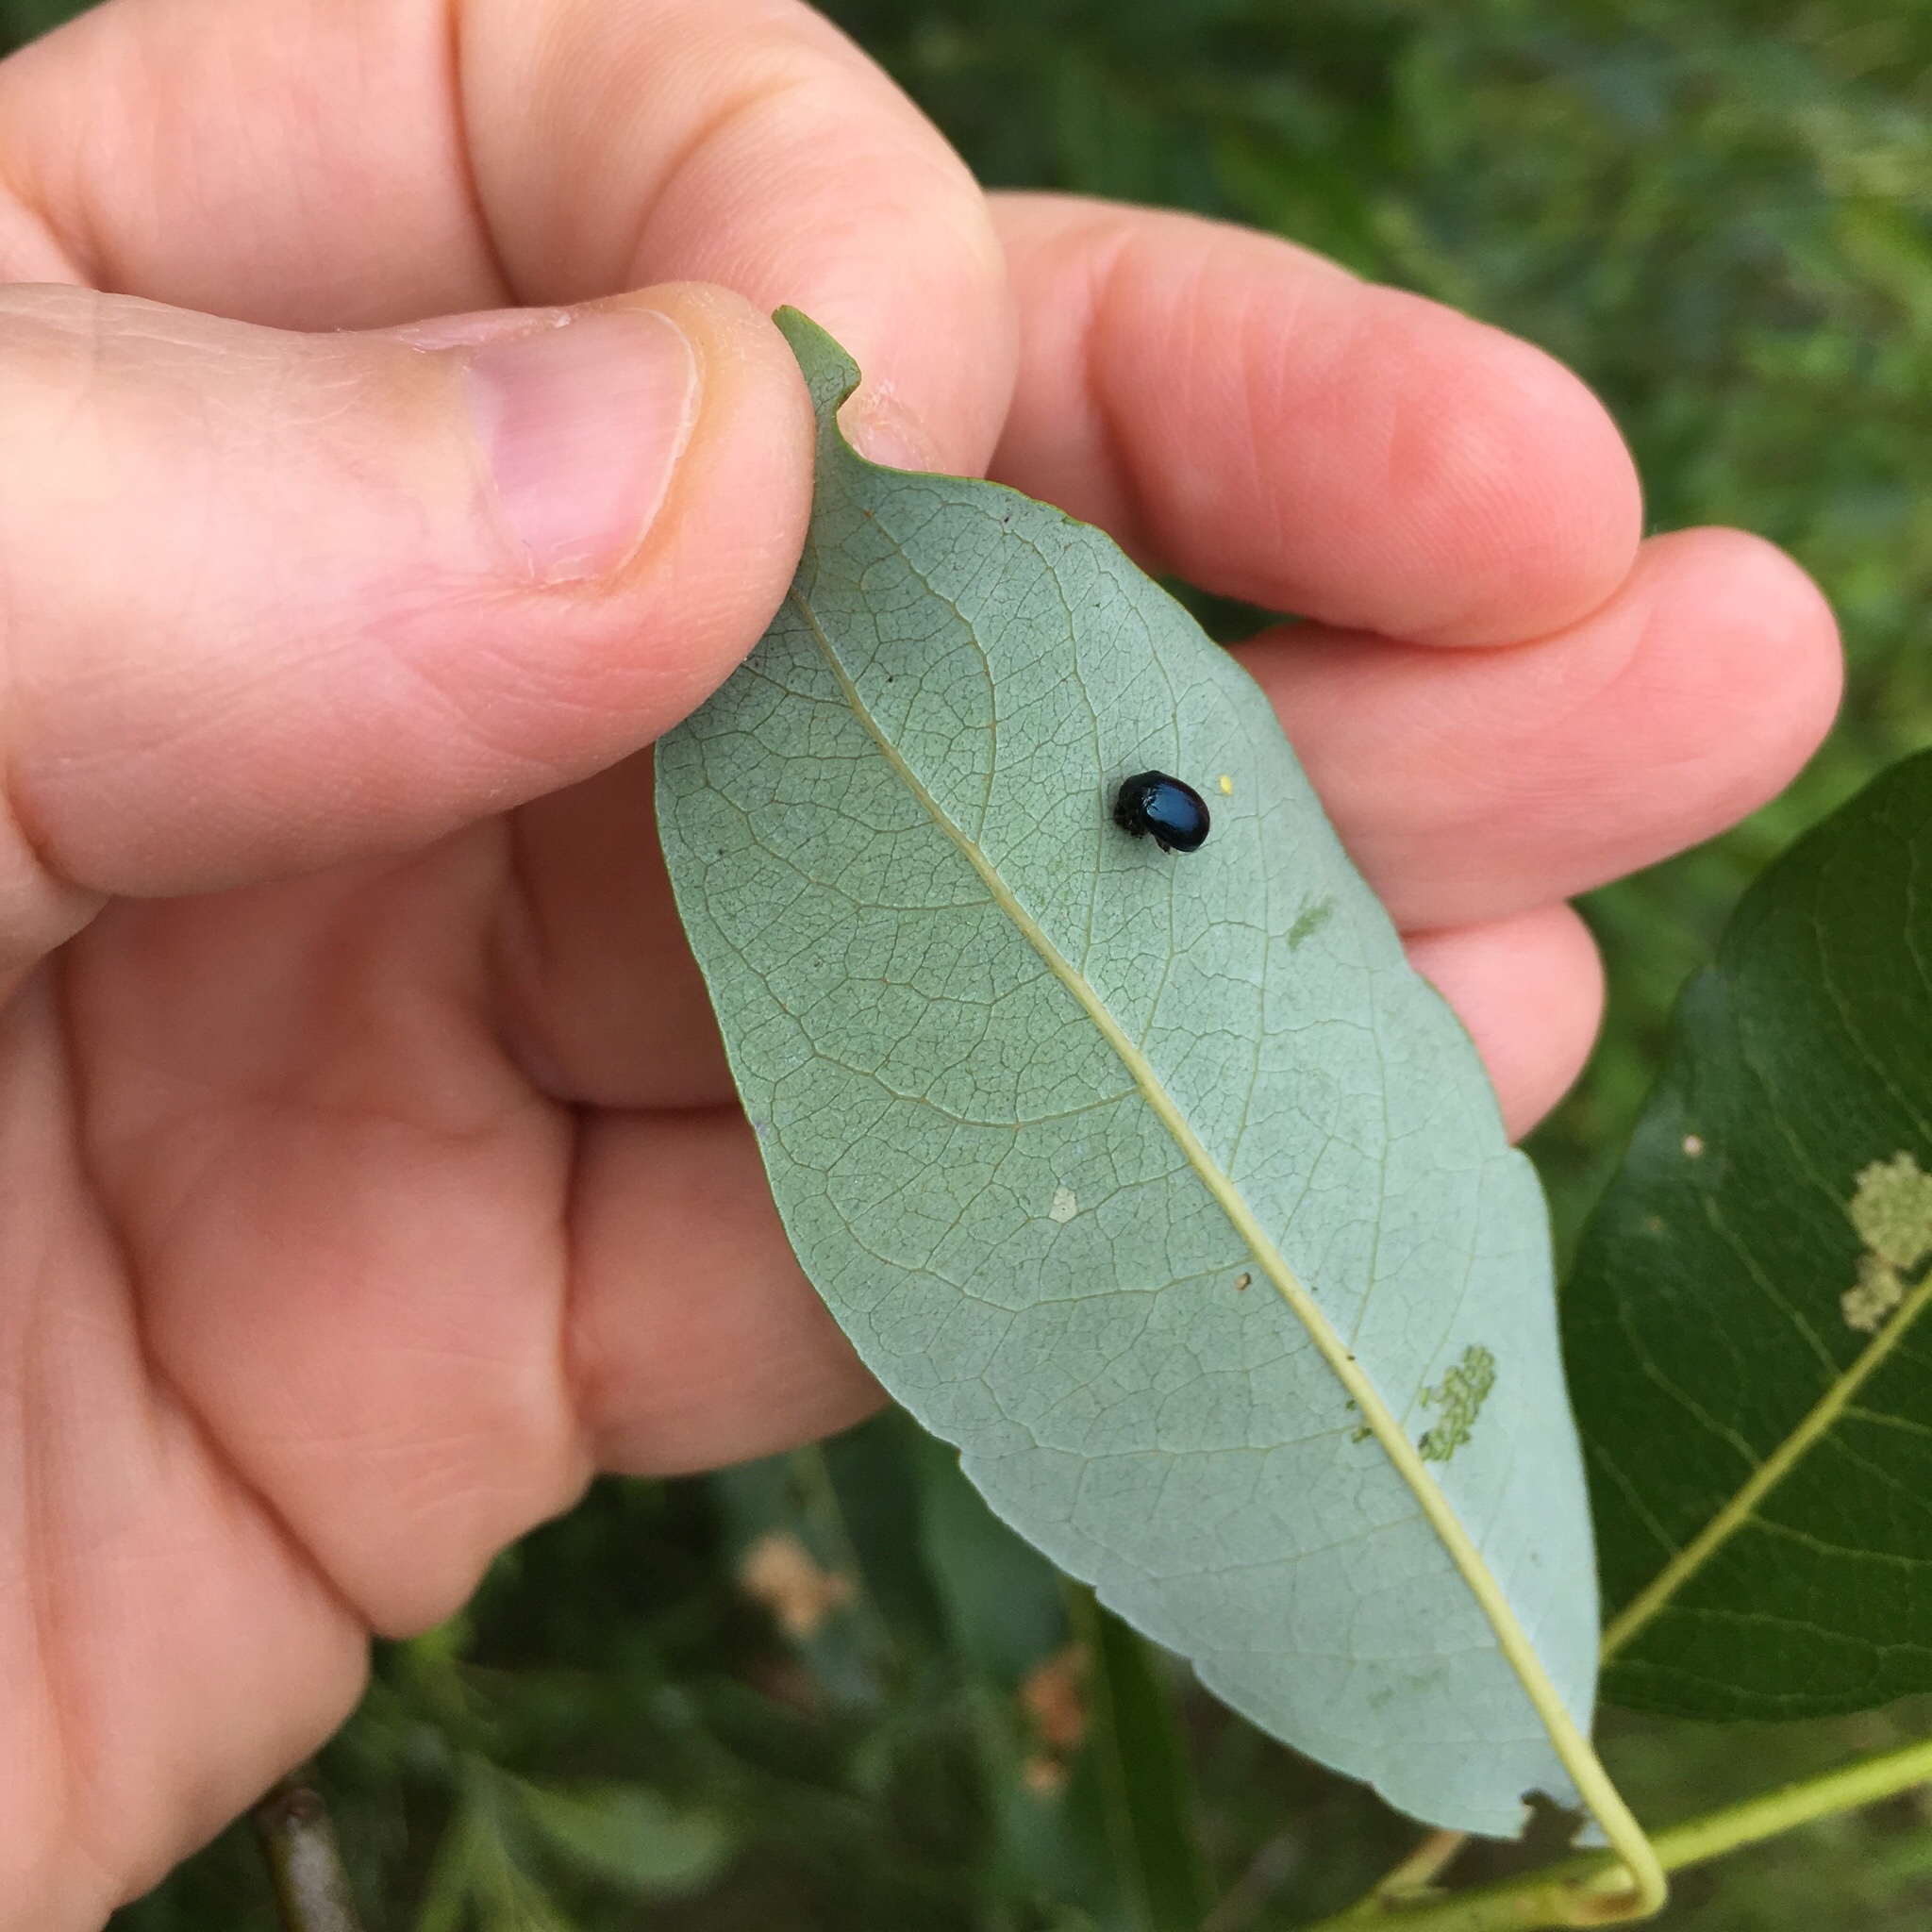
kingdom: Animalia
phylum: Arthropoda
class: Insecta
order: Coleoptera
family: Chrysomelidae
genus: Plagiodera
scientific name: Plagiodera versicolora
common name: Imported willow leaf beetle
